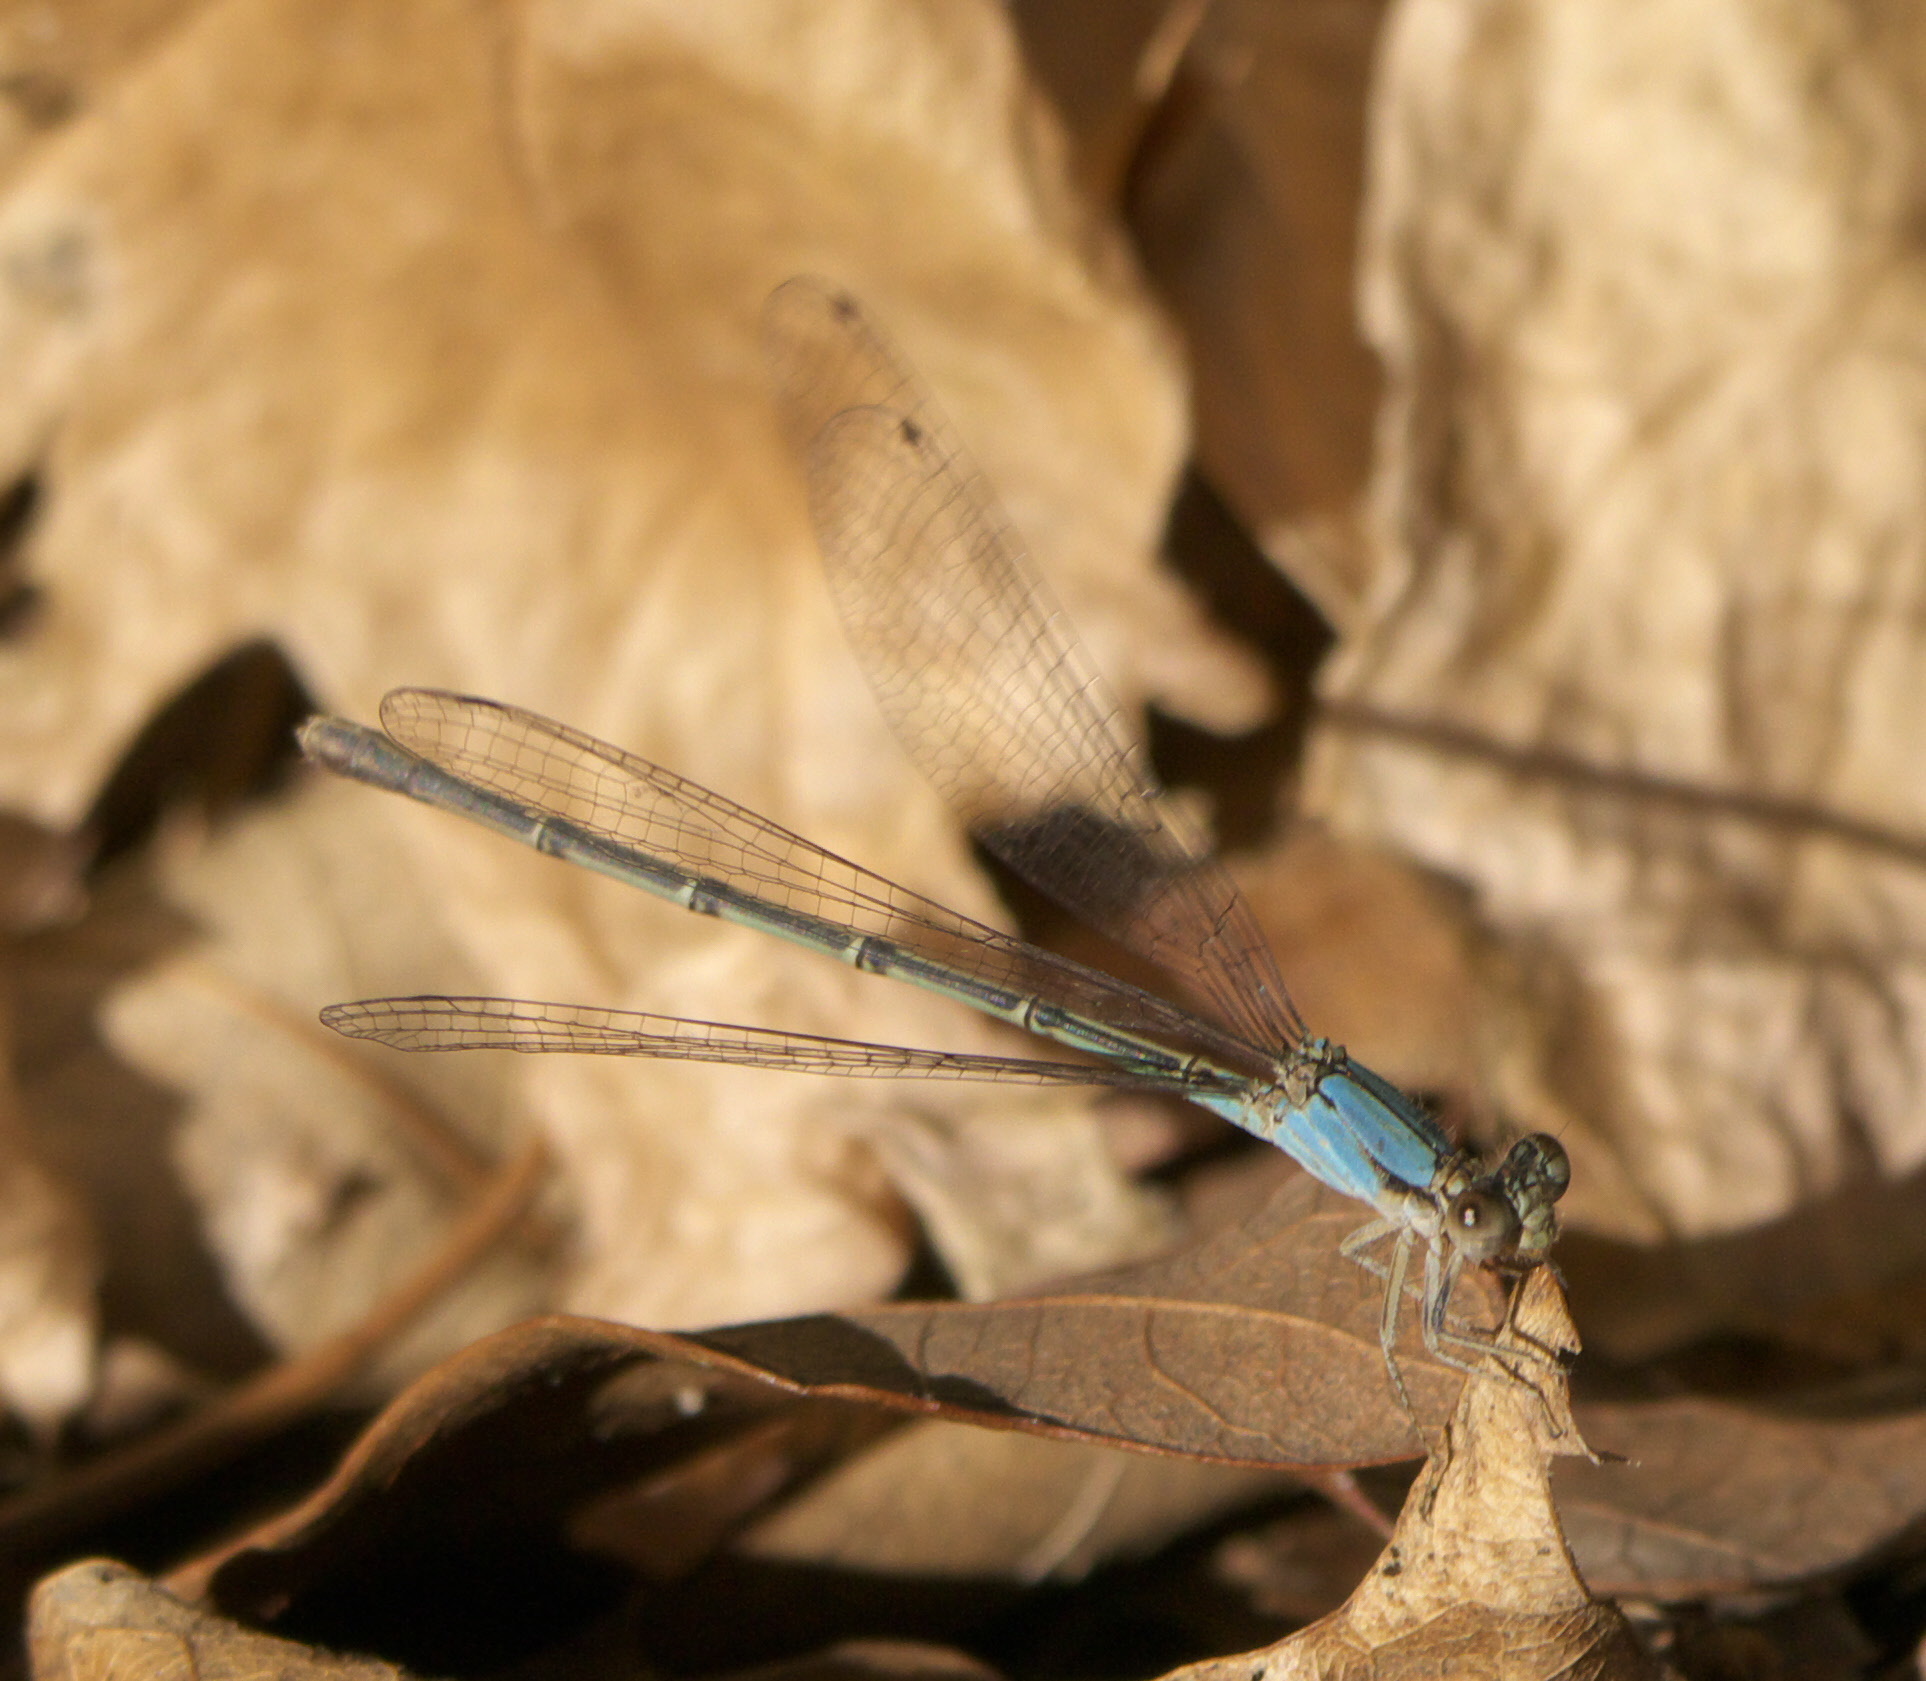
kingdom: Animalia
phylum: Arthropoda
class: Insecta
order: Odonata
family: Coenagrionidae
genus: Argia
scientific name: Argia apicalis
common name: Blue-fronted dancer
